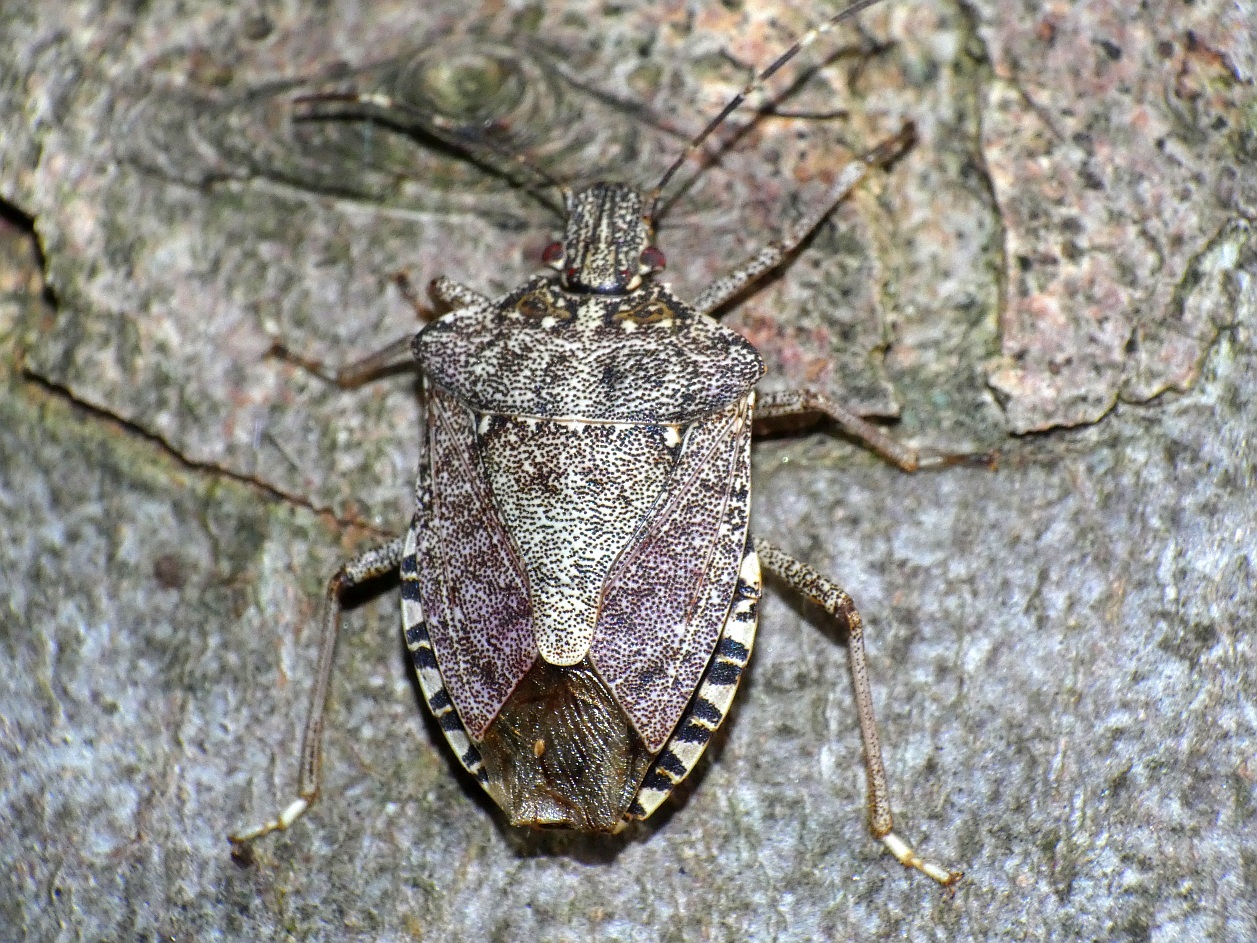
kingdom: Animalia
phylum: Arthropoda
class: Insecta
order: Hemiptera
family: Pentatomidae
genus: Halyomorpha
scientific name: Halyomorpha halys
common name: Brown marmorated stink bug
